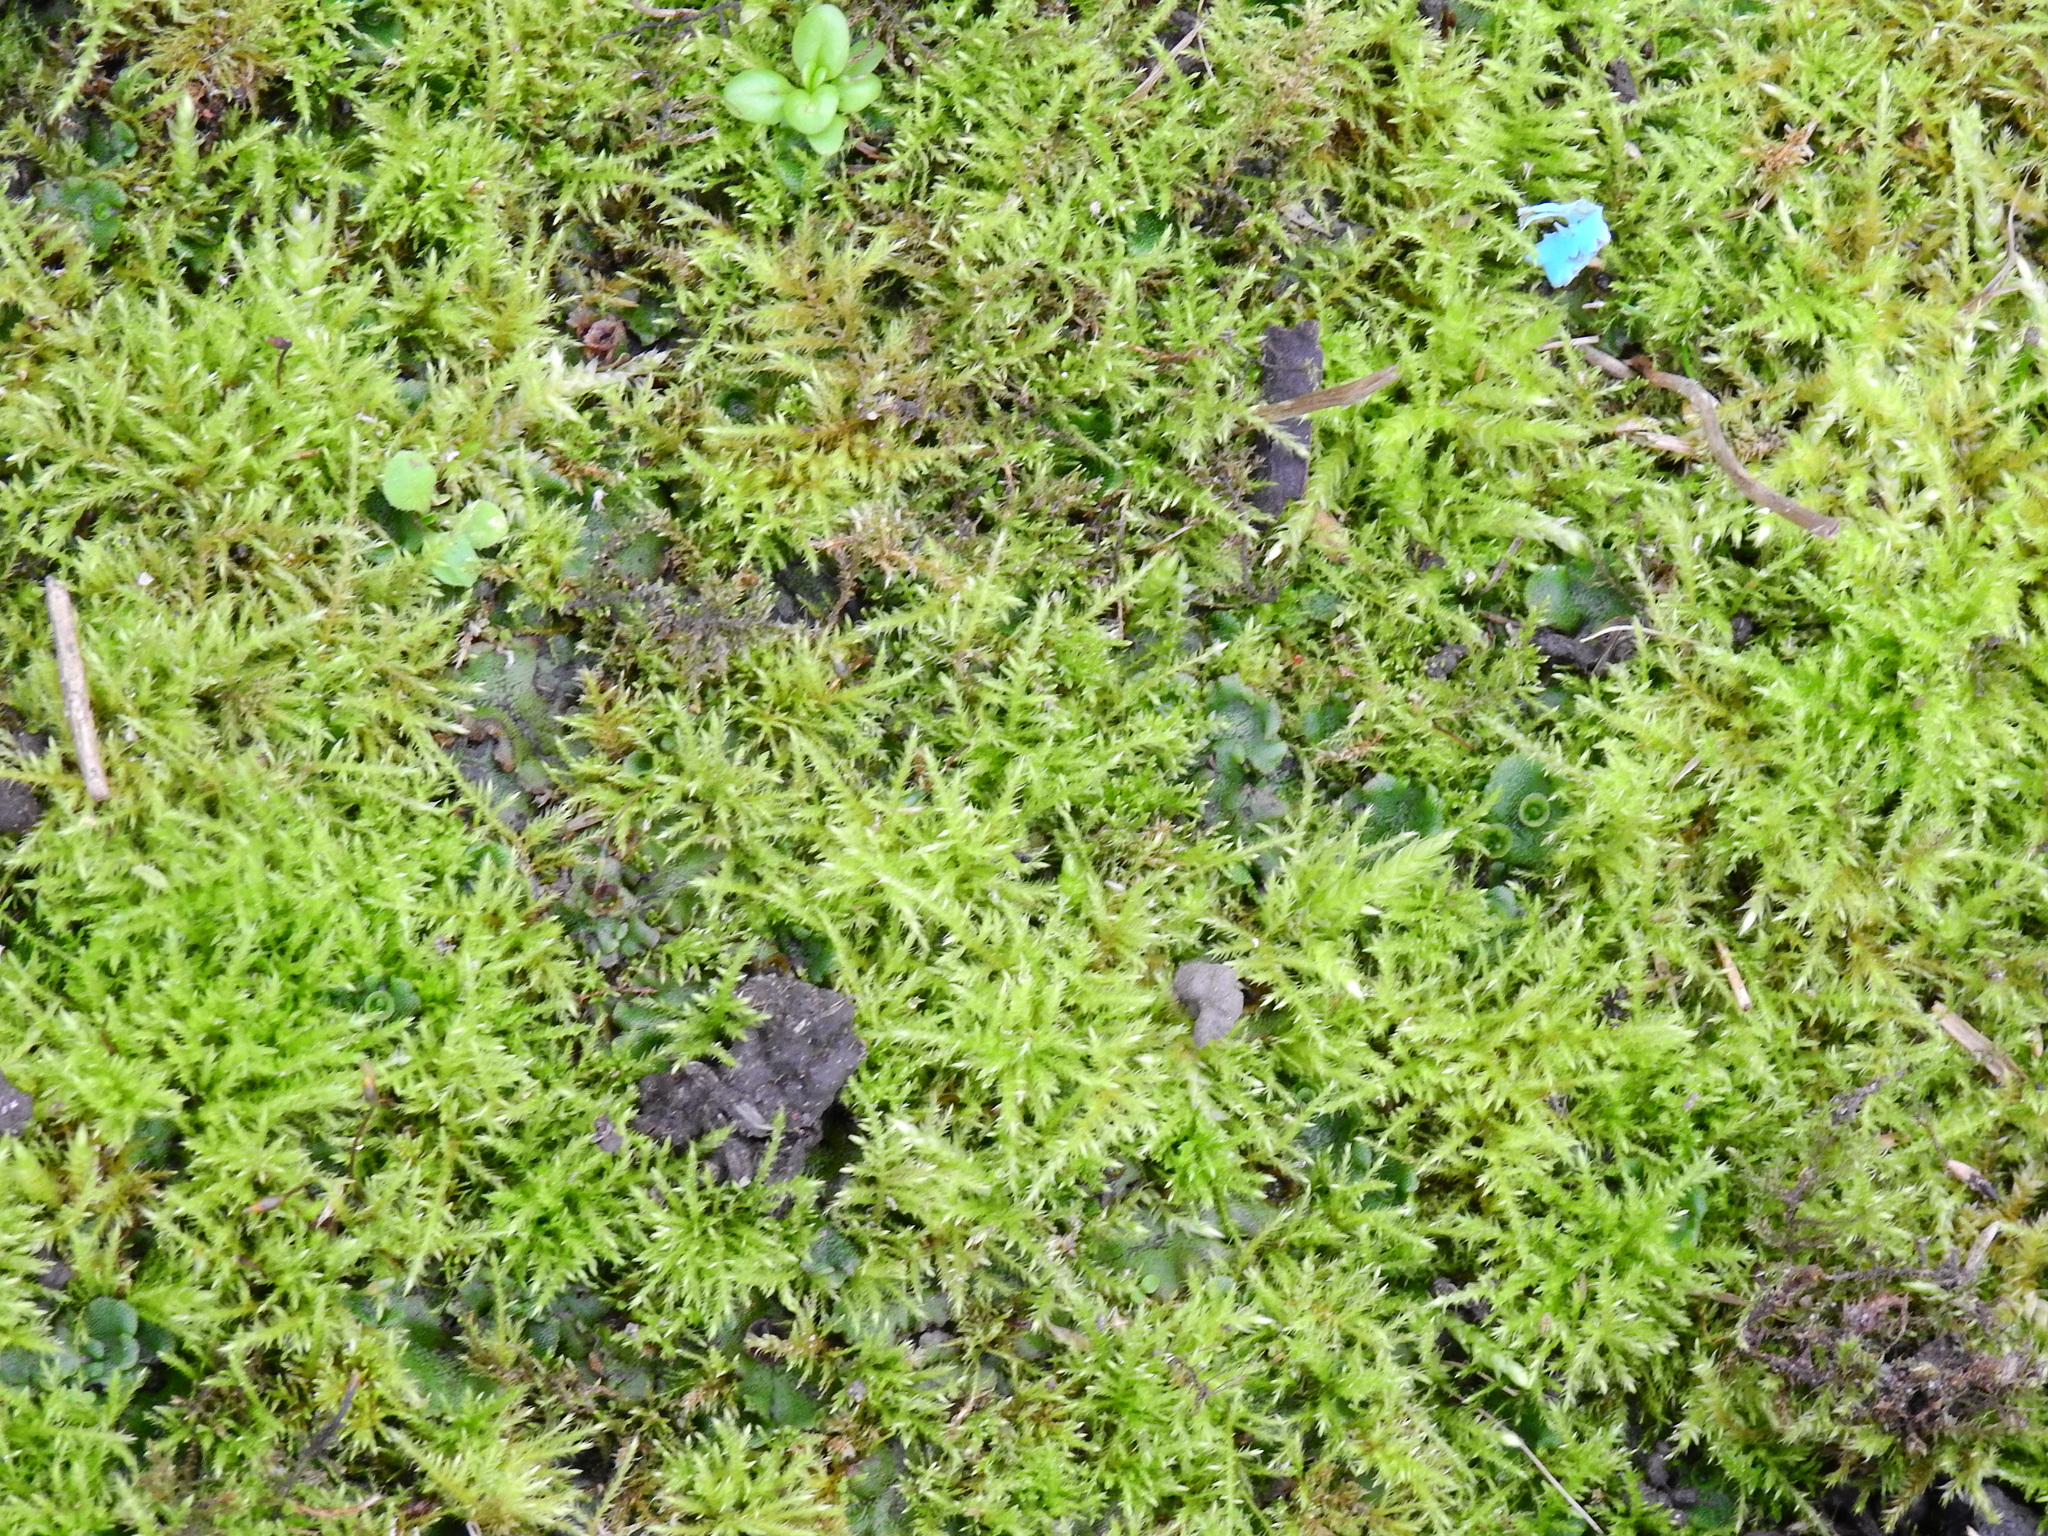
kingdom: Plantae
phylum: Bryophyta
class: Bryopsida
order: Hypnales
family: Brachytheciaceae
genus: Kindbergia
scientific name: Kindbergia praelonga
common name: Slender beaked moss
